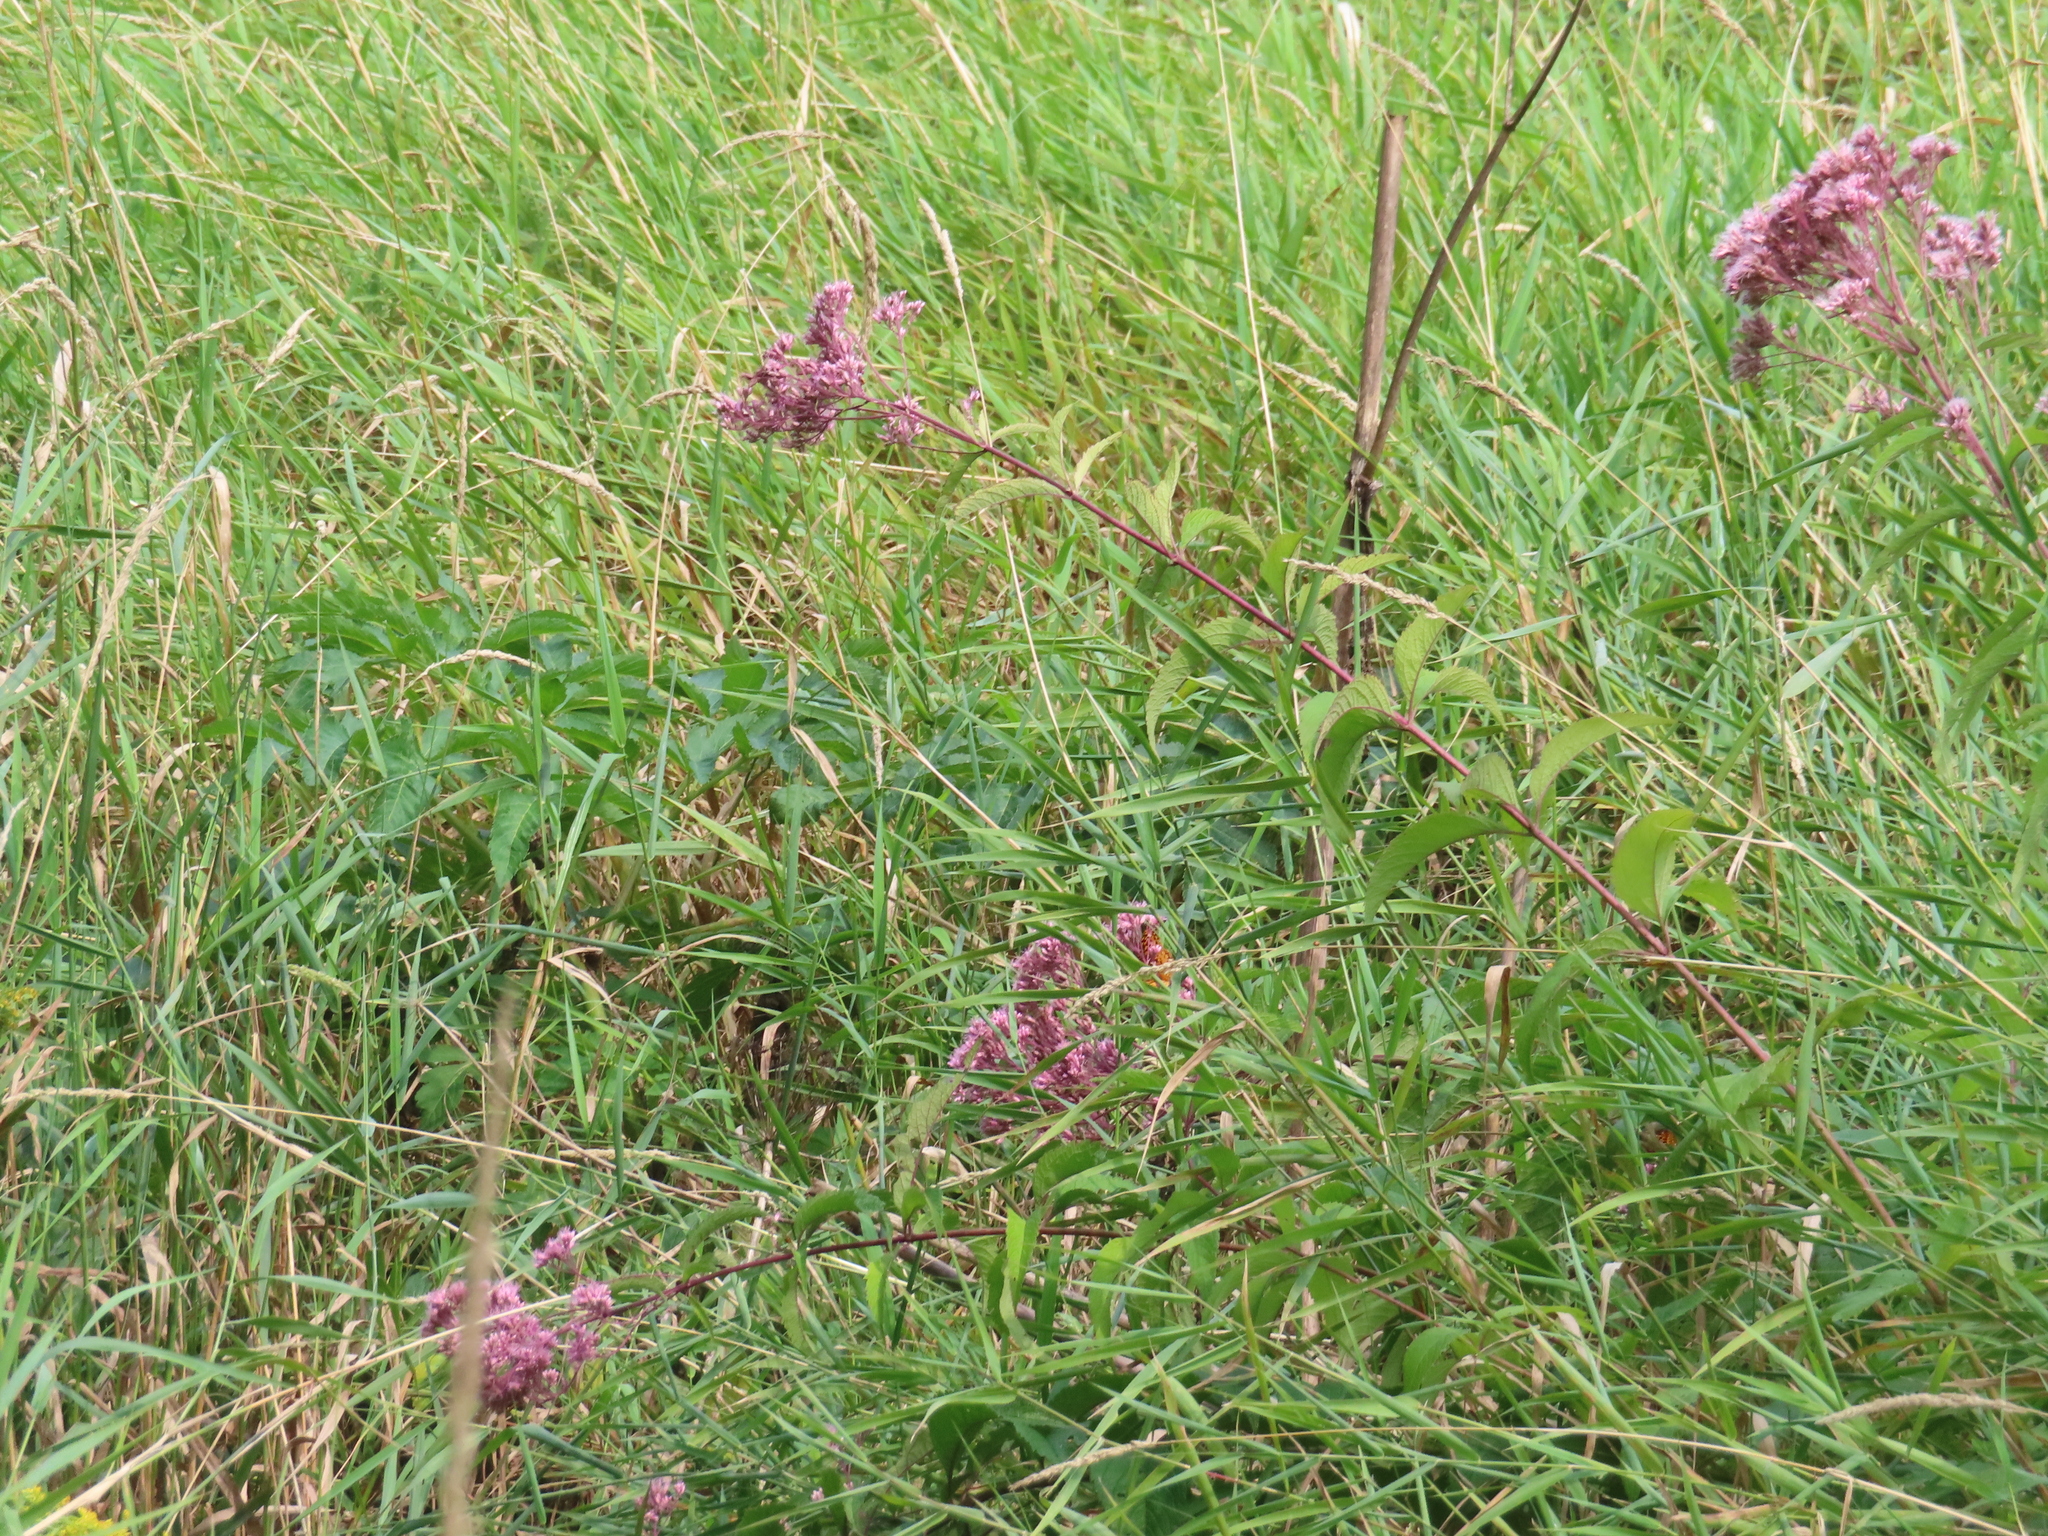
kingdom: Plantae
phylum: Tracheophyta
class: Magnoliopsida
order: Asterales
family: Asteraceae
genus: Eutrochium
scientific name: Eutrochium maculatum
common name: Spotted joe pye weed
